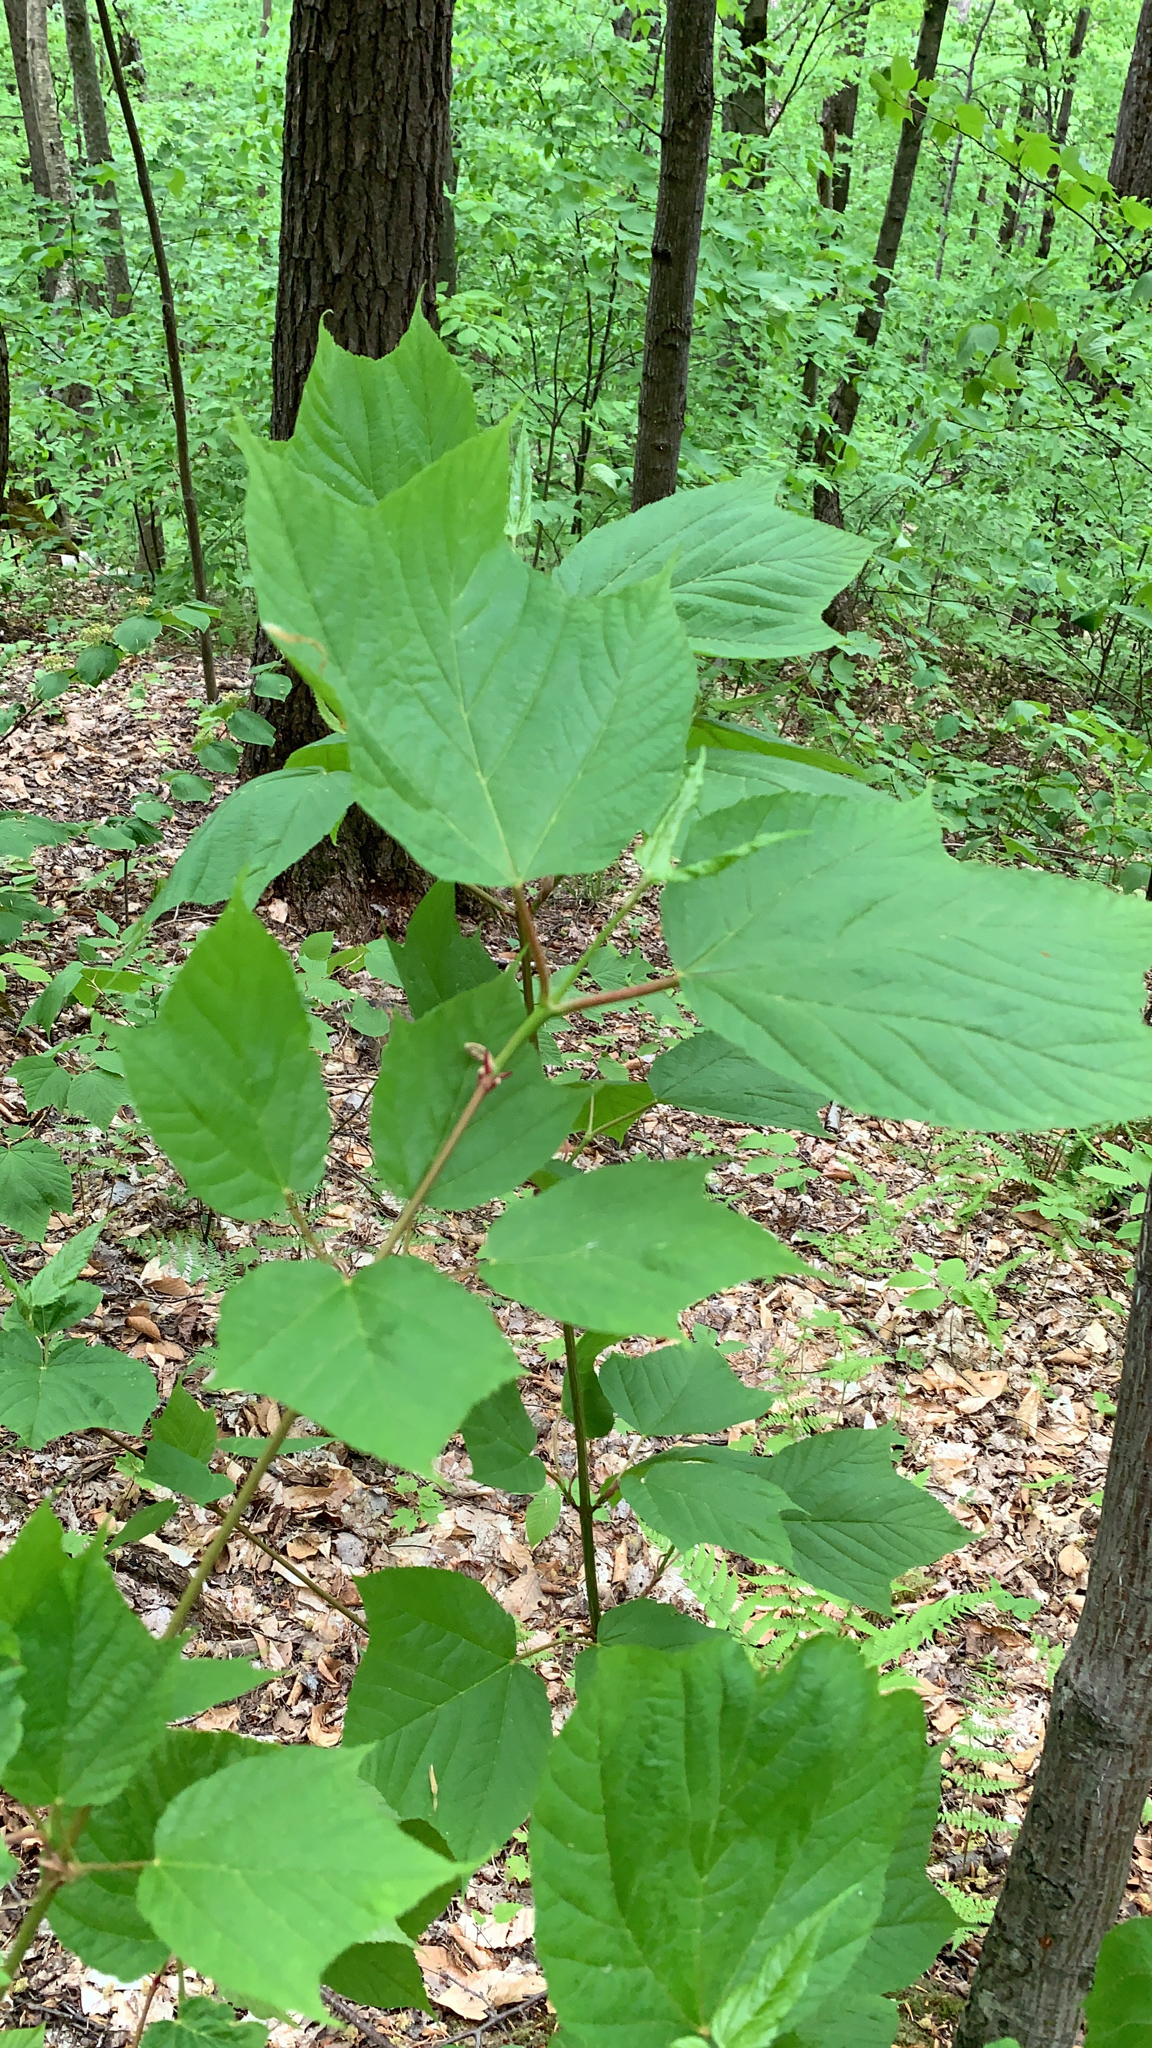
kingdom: Plantae
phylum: Tracheophyta
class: Magnoliopsida
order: Sapindales
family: Sapindaceae
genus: Acer
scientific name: Acer pensylvanicum
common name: Moosewood
